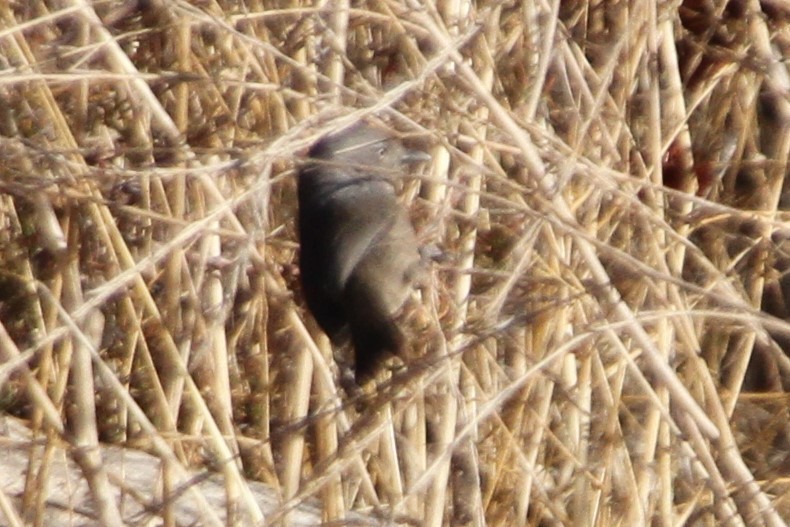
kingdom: Animalia
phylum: Chordata
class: Aves
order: Passeriformes
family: Sylviidae
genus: Chamaea
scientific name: Chamaea fasciata
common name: Wrentit
